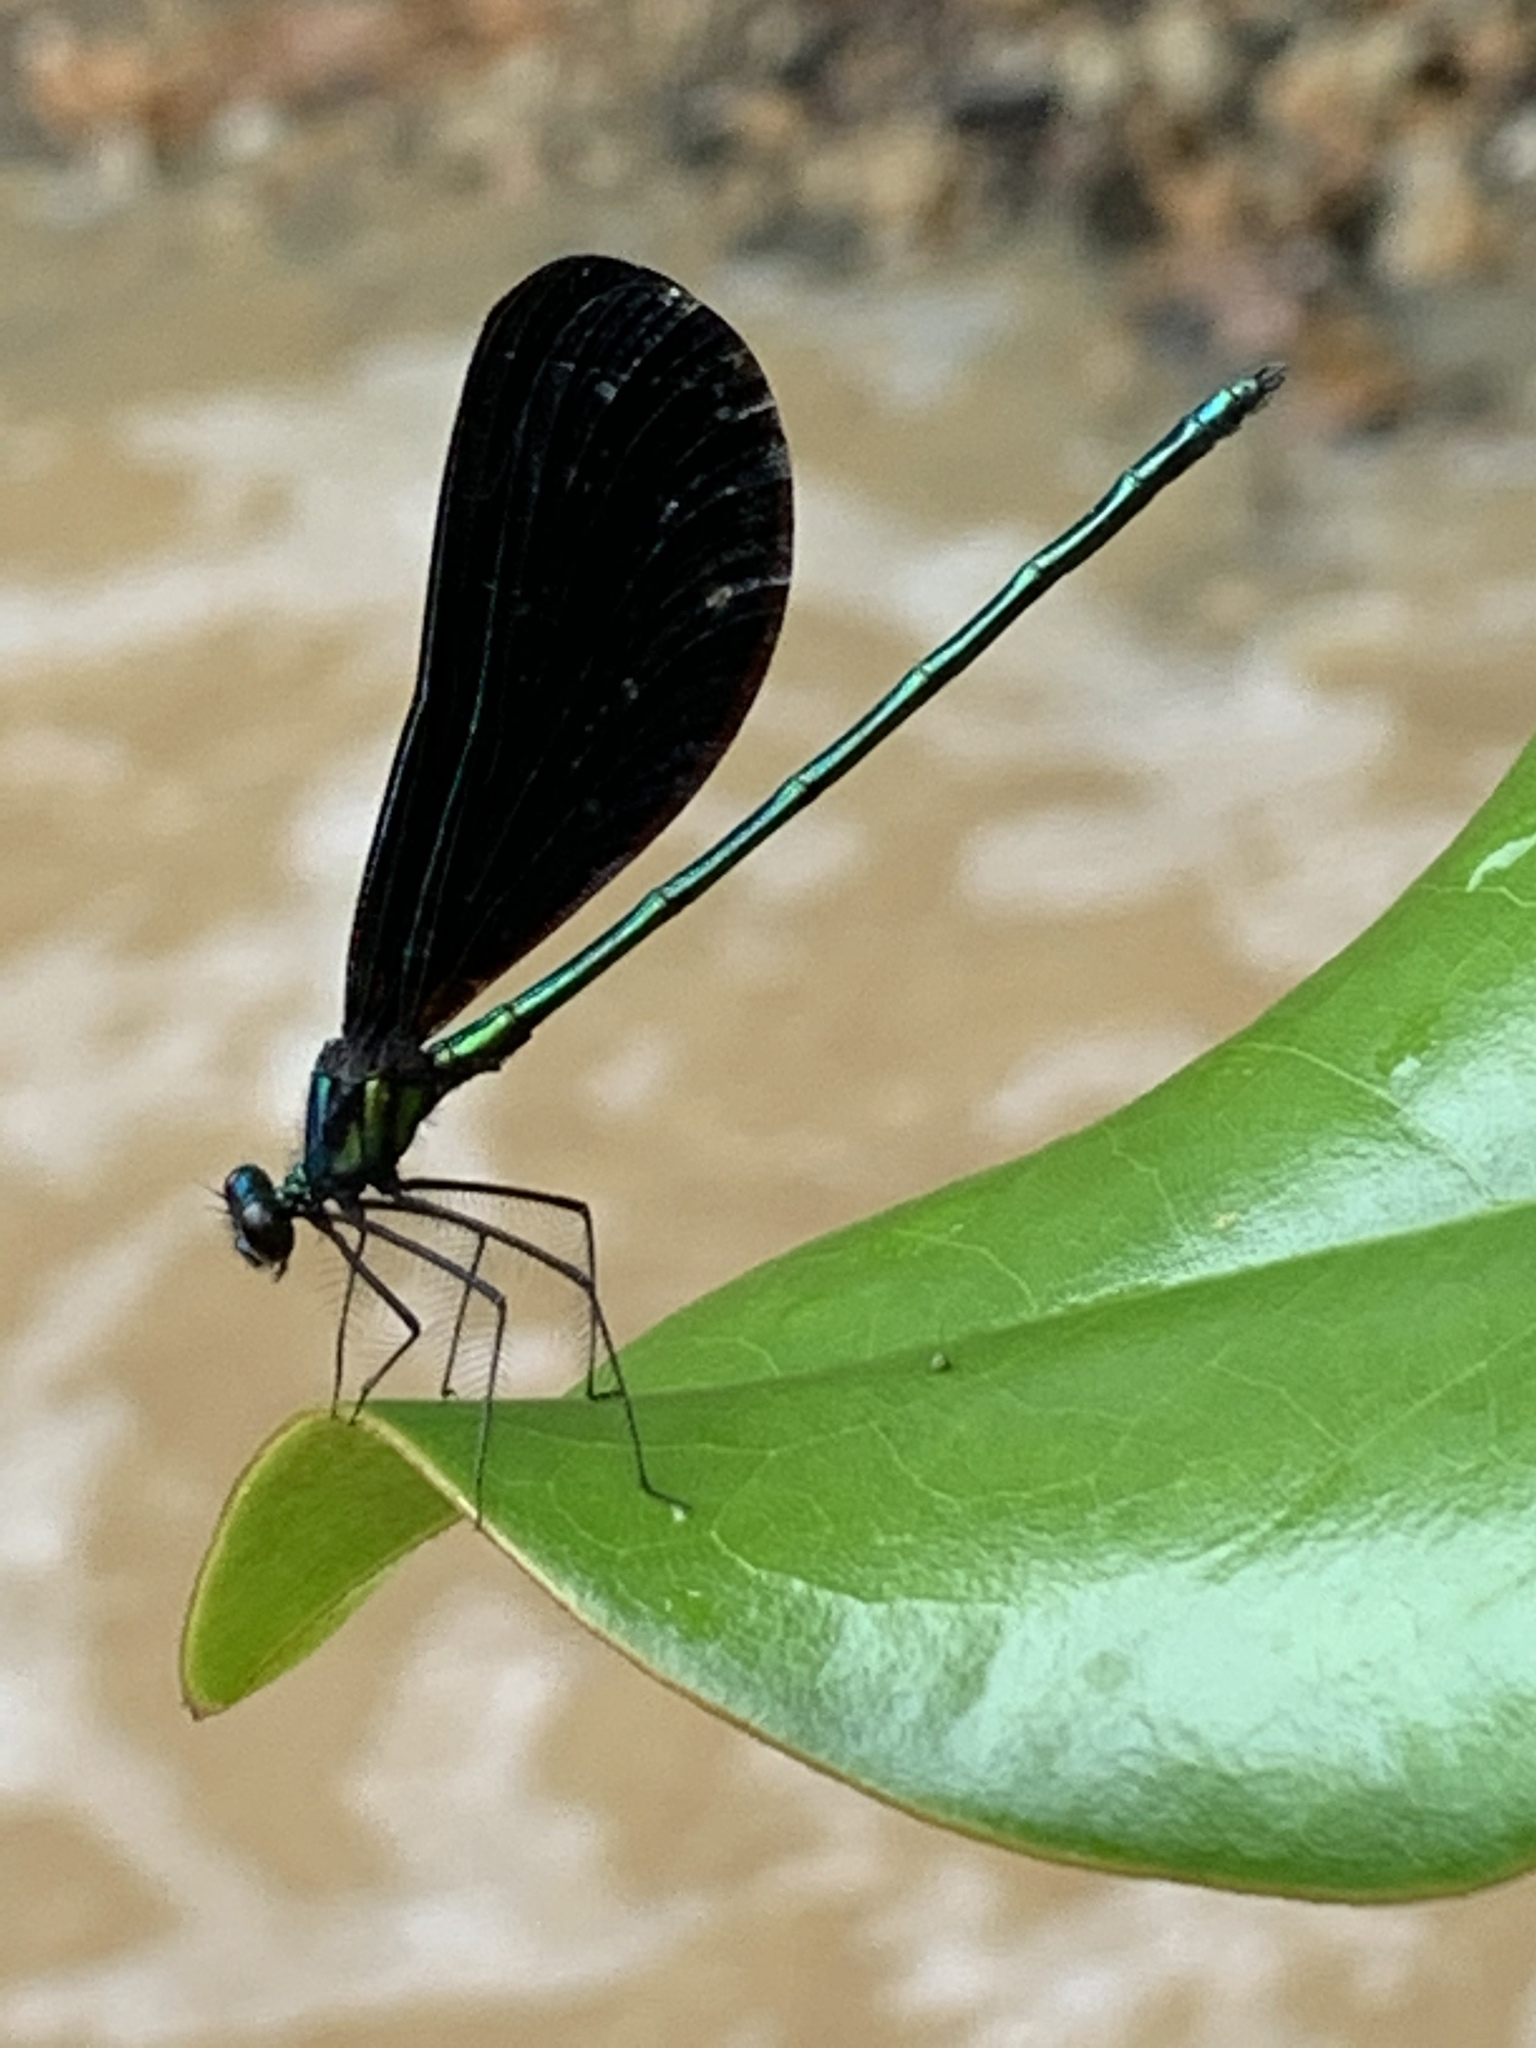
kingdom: Animalia
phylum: Arthropoda
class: Insecta
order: Odonata
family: Calopterygidae
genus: Calopteryx
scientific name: Calopteryx maculata
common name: Ebony jewelwing
